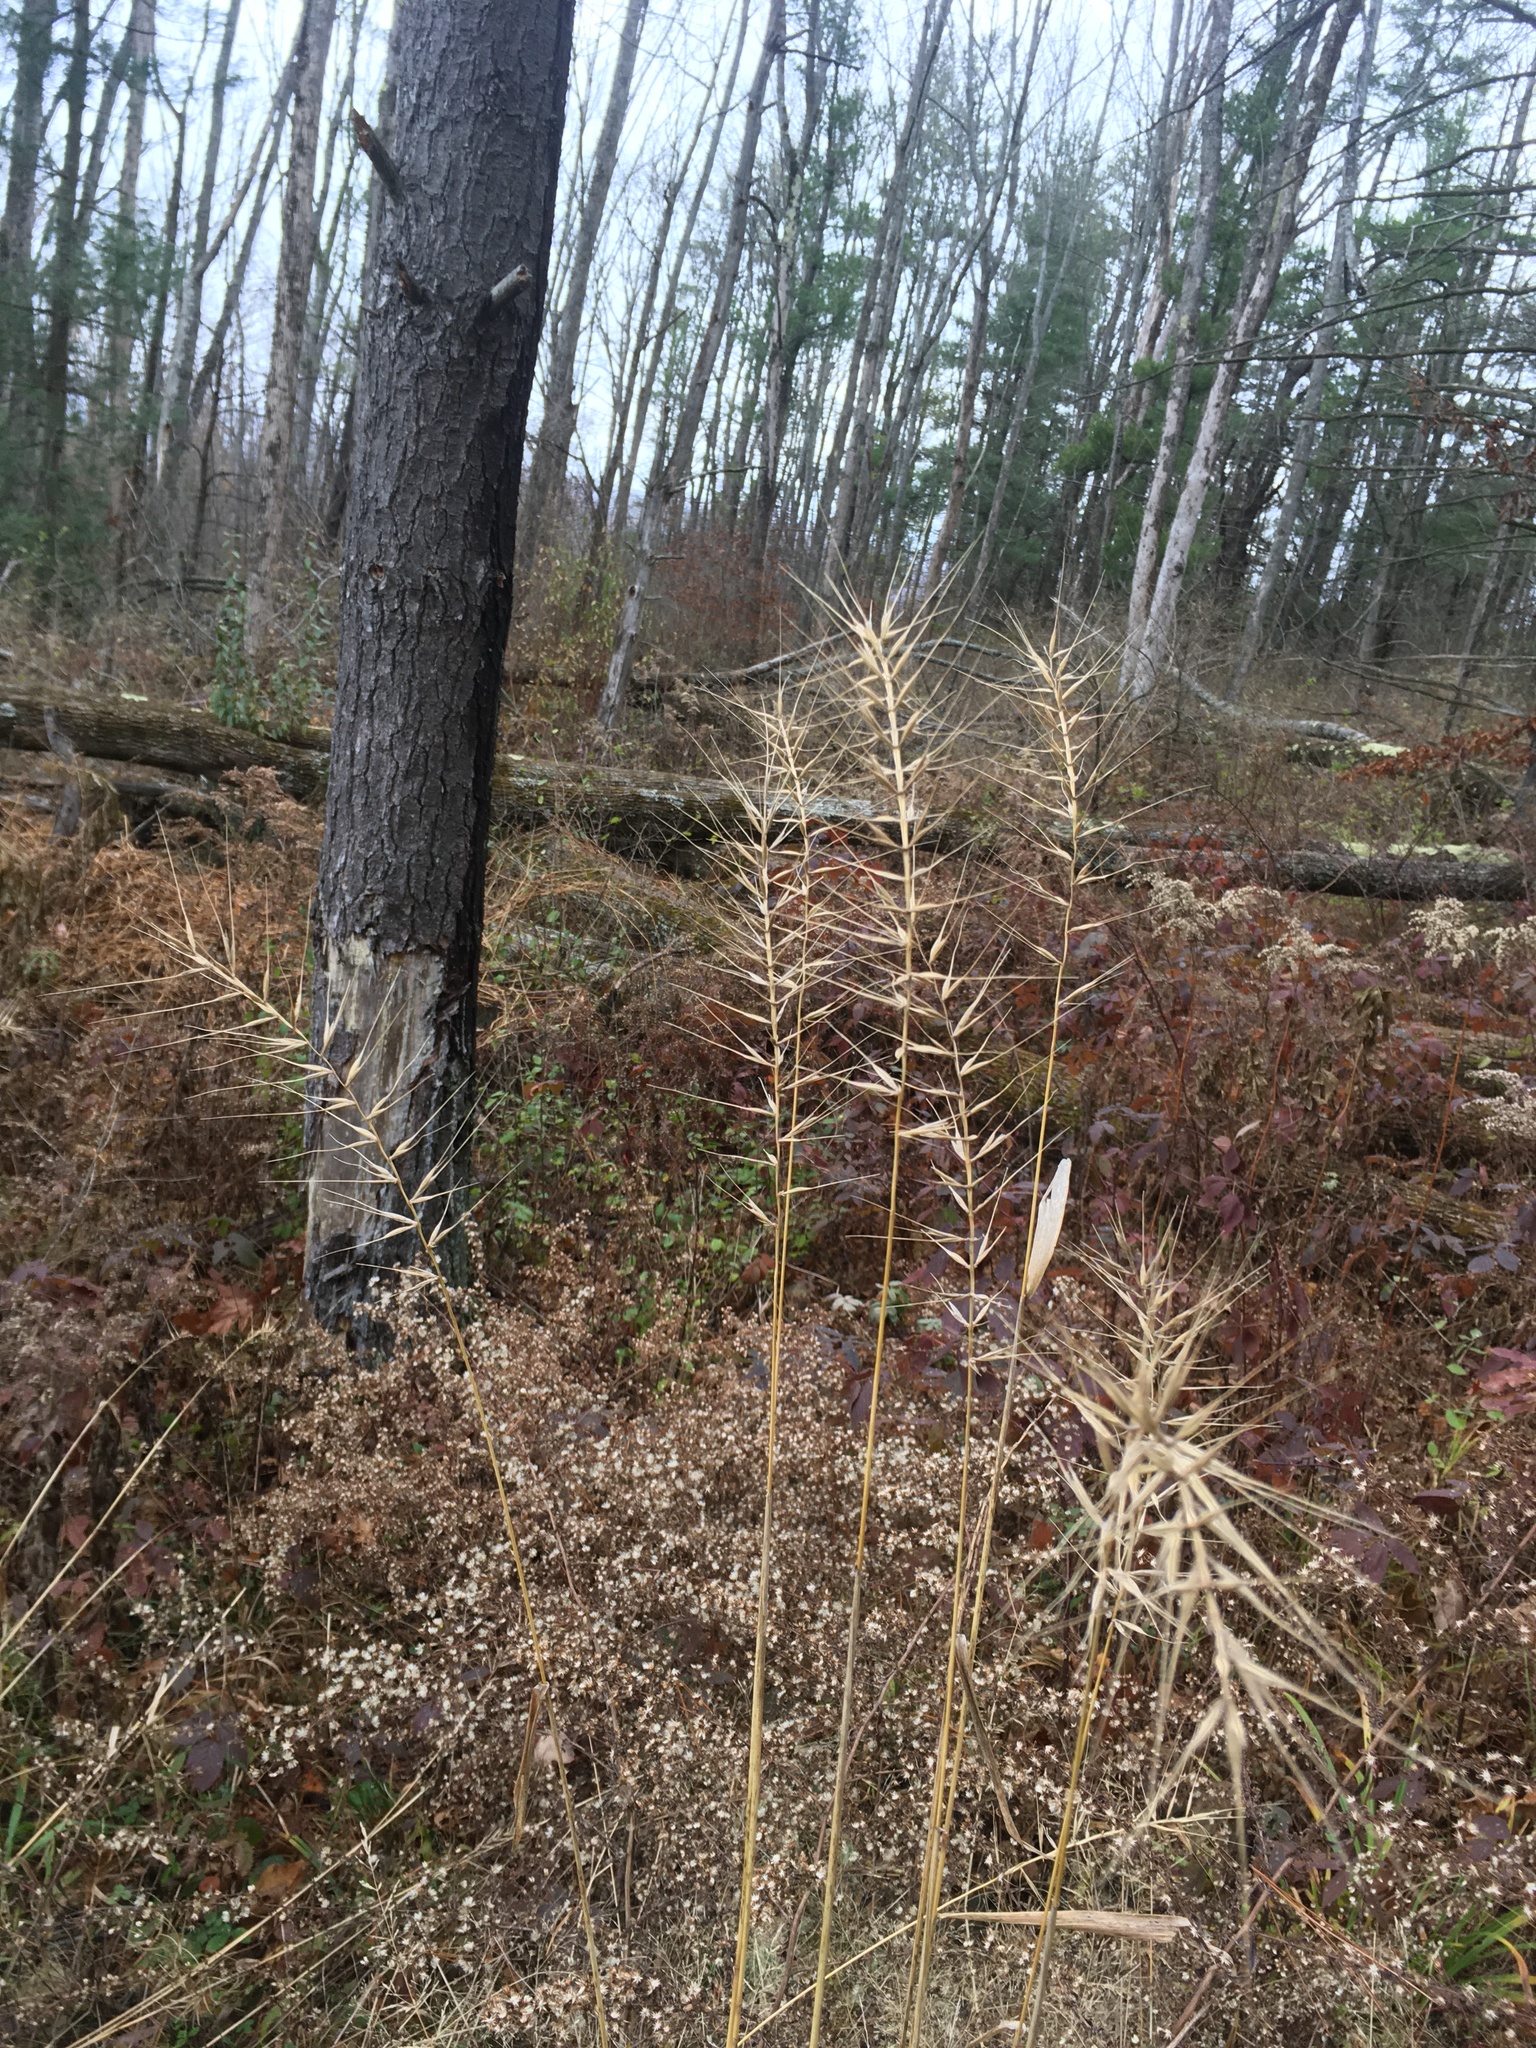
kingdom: Plantae
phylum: Tracheophyta
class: Liliopsida
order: Poales
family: Poaceae
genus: Elymus
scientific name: Elymus hystrix
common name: Bottlebrush grass
